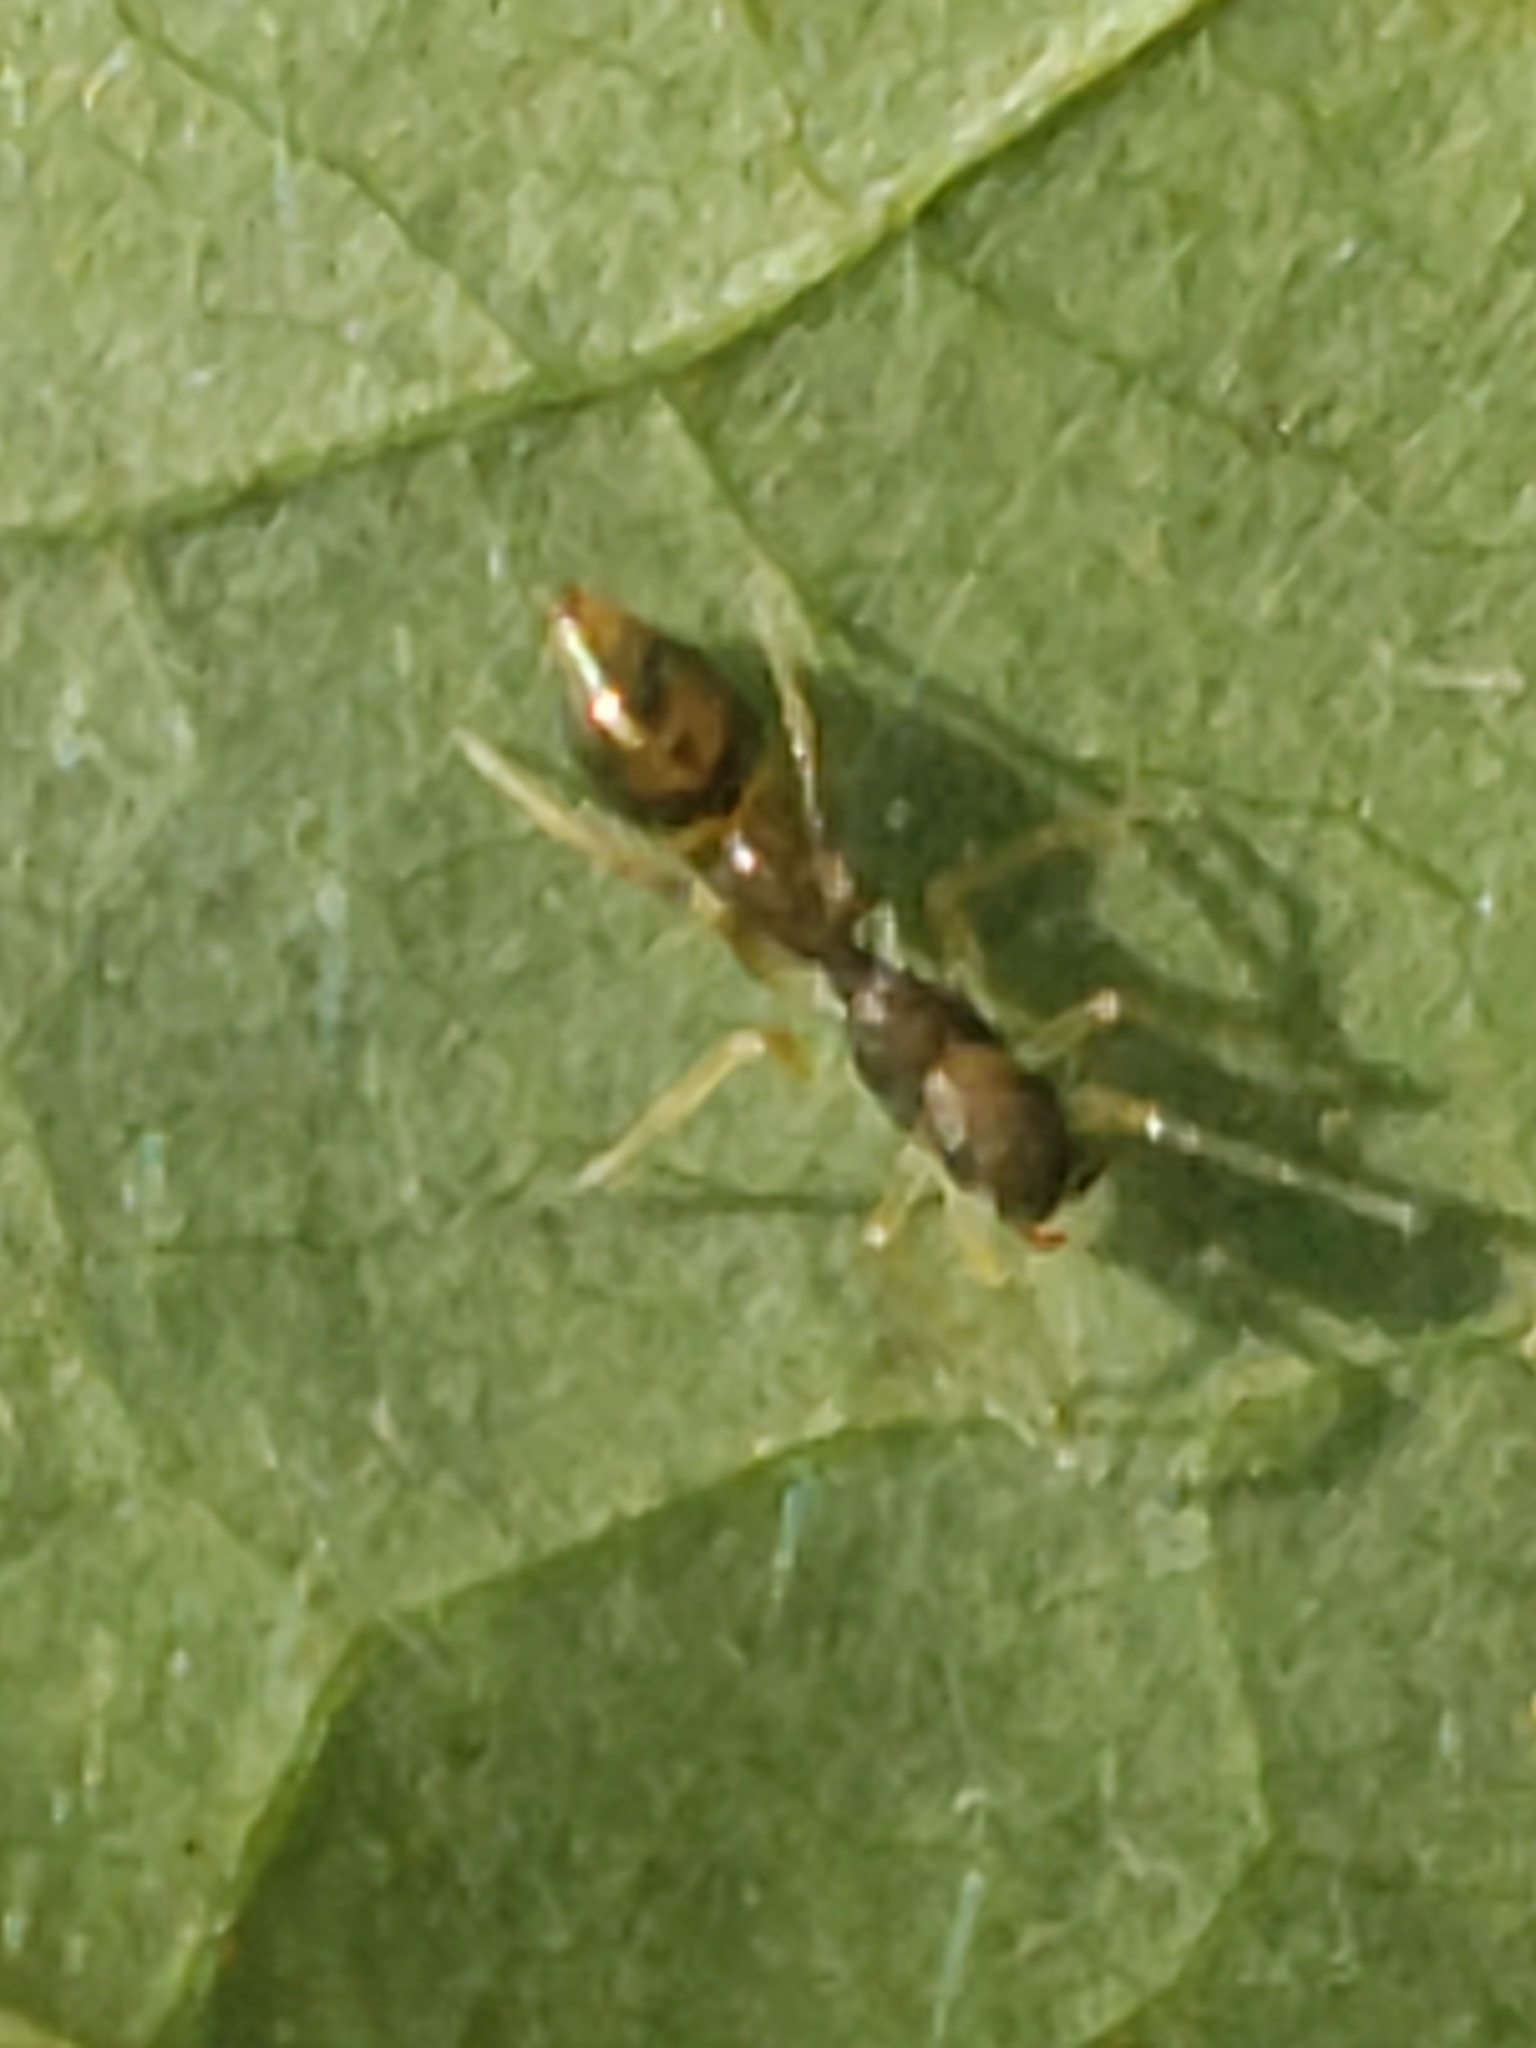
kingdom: Animalia
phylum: Arthropoda
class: Arachnida
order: Araneae
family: Salticidae
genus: Synemosyna
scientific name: Synemosyna formica
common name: Slender ant-mimic jumping spider
